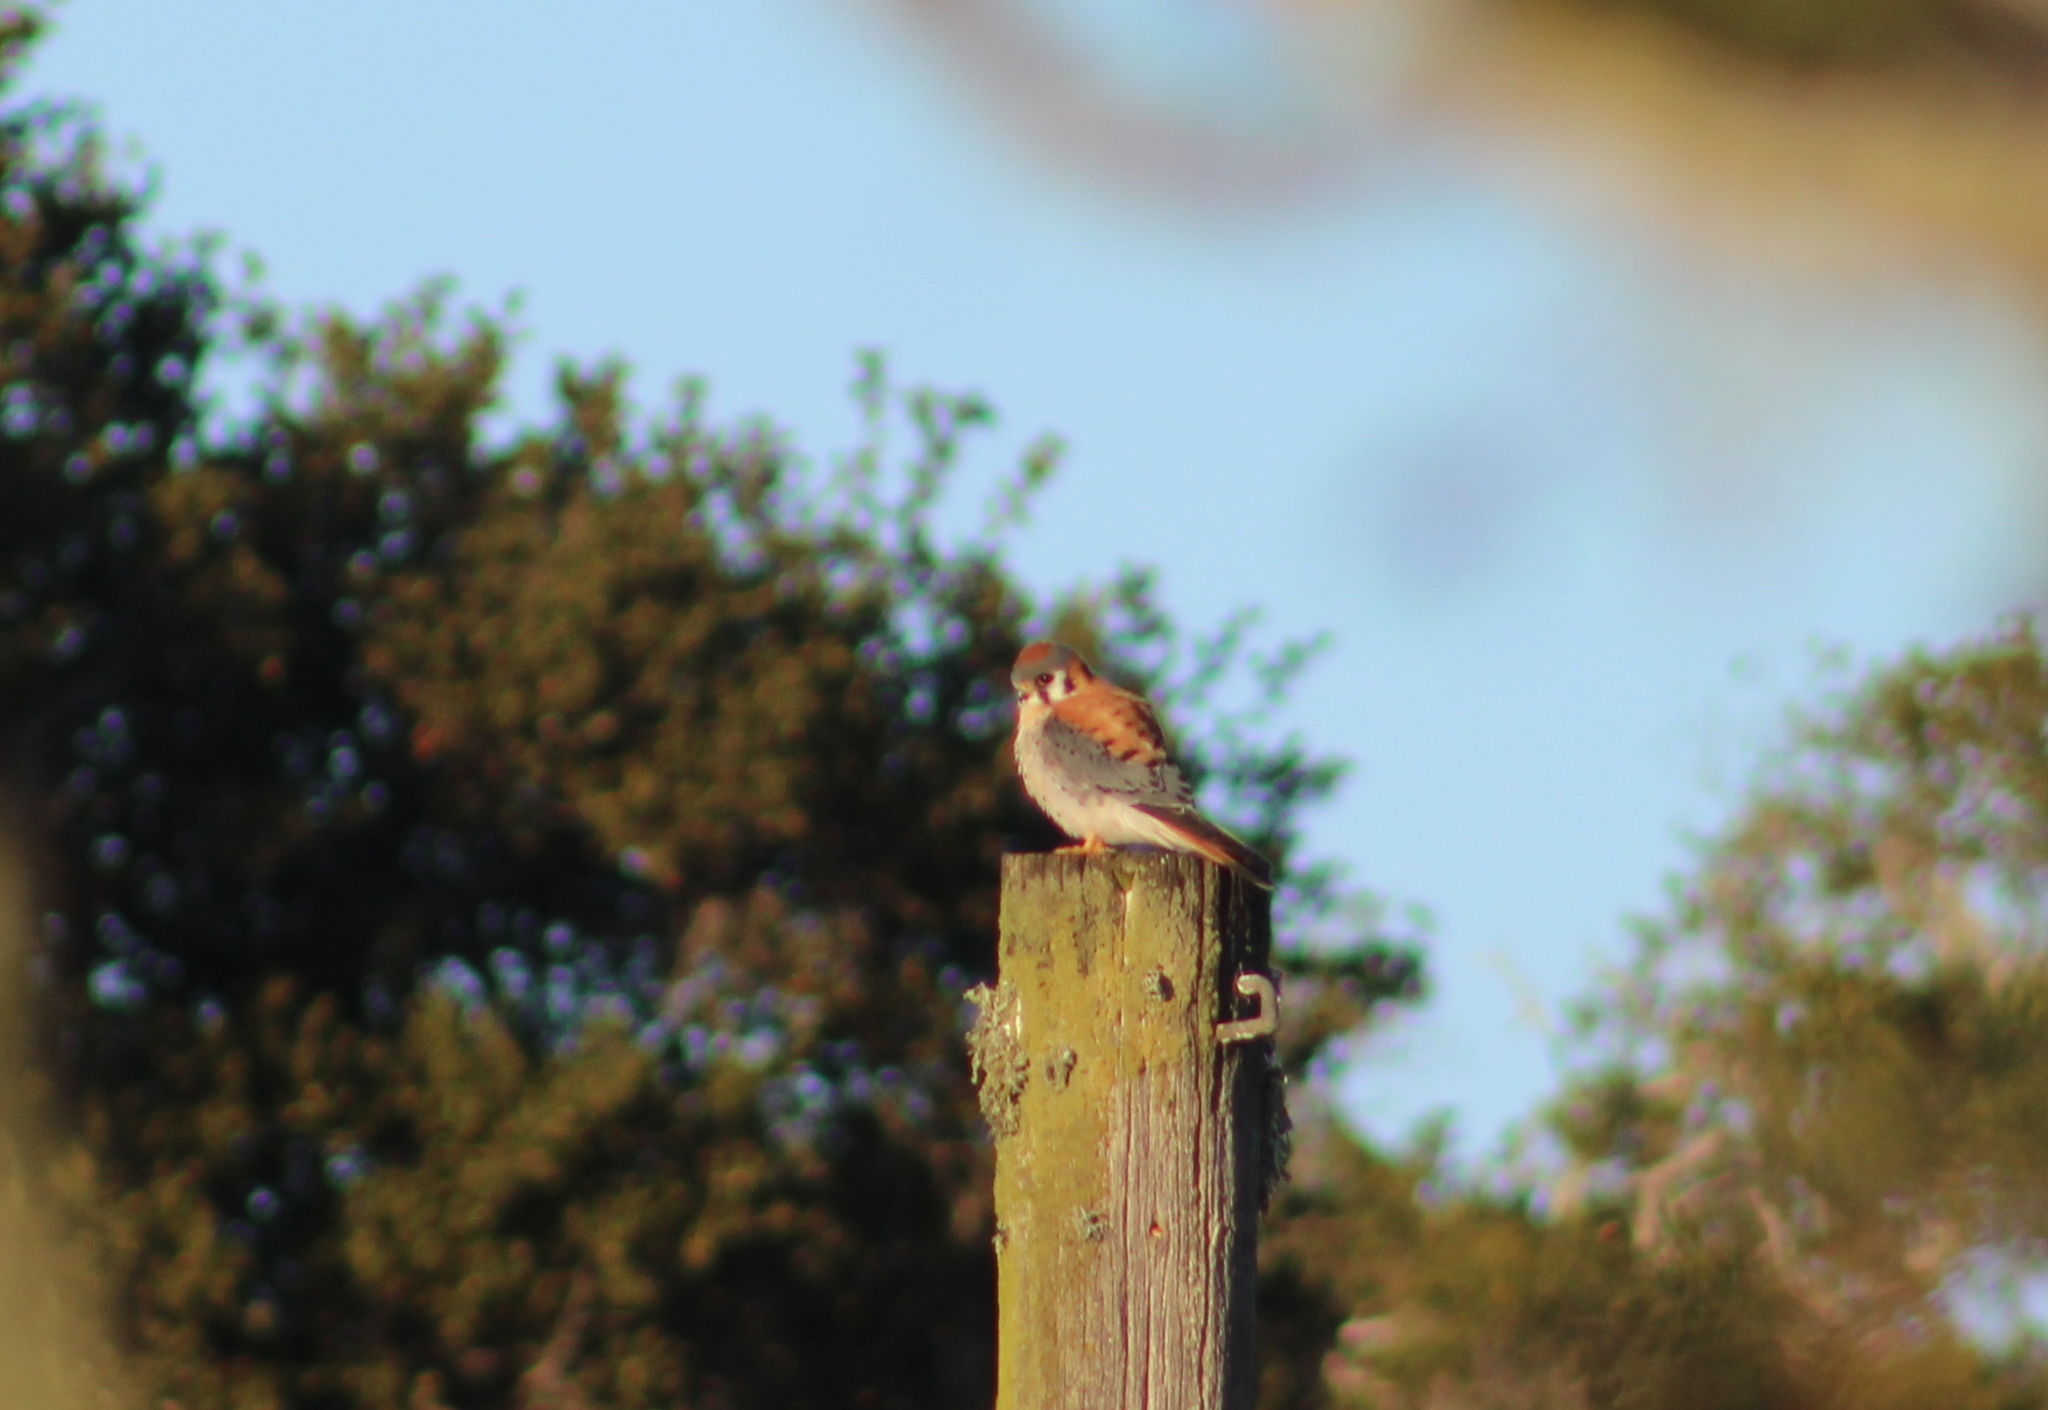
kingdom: Animalia
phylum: Chordata
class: Aves
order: Falconiformes
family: Falconidae
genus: Falco
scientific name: Falco sparverius
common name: American kestrel
